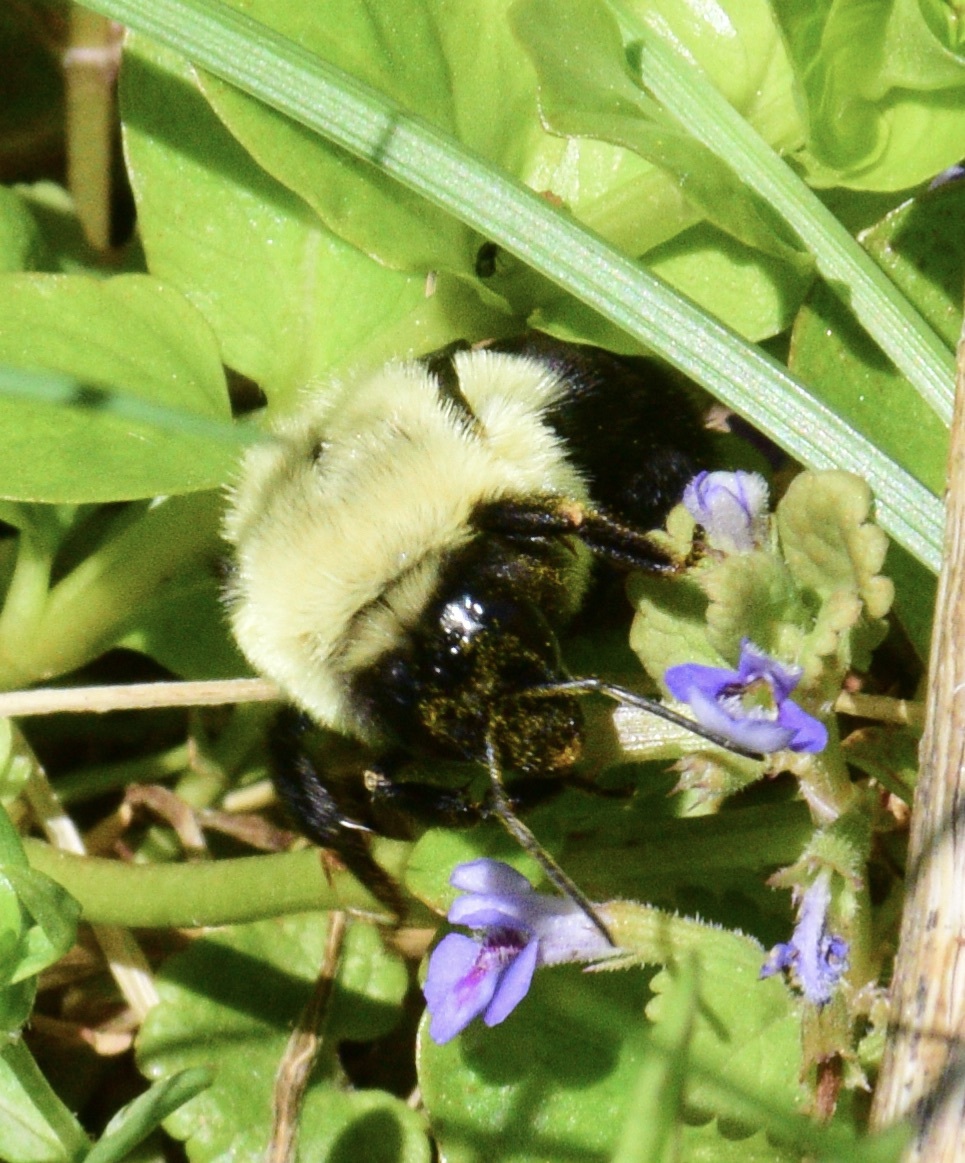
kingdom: Animalia
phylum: Arthropoda
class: Insecta
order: Hymenoptera
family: Apidae
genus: Bombus
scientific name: Bombus impatiens
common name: Common eastern bumble bee
